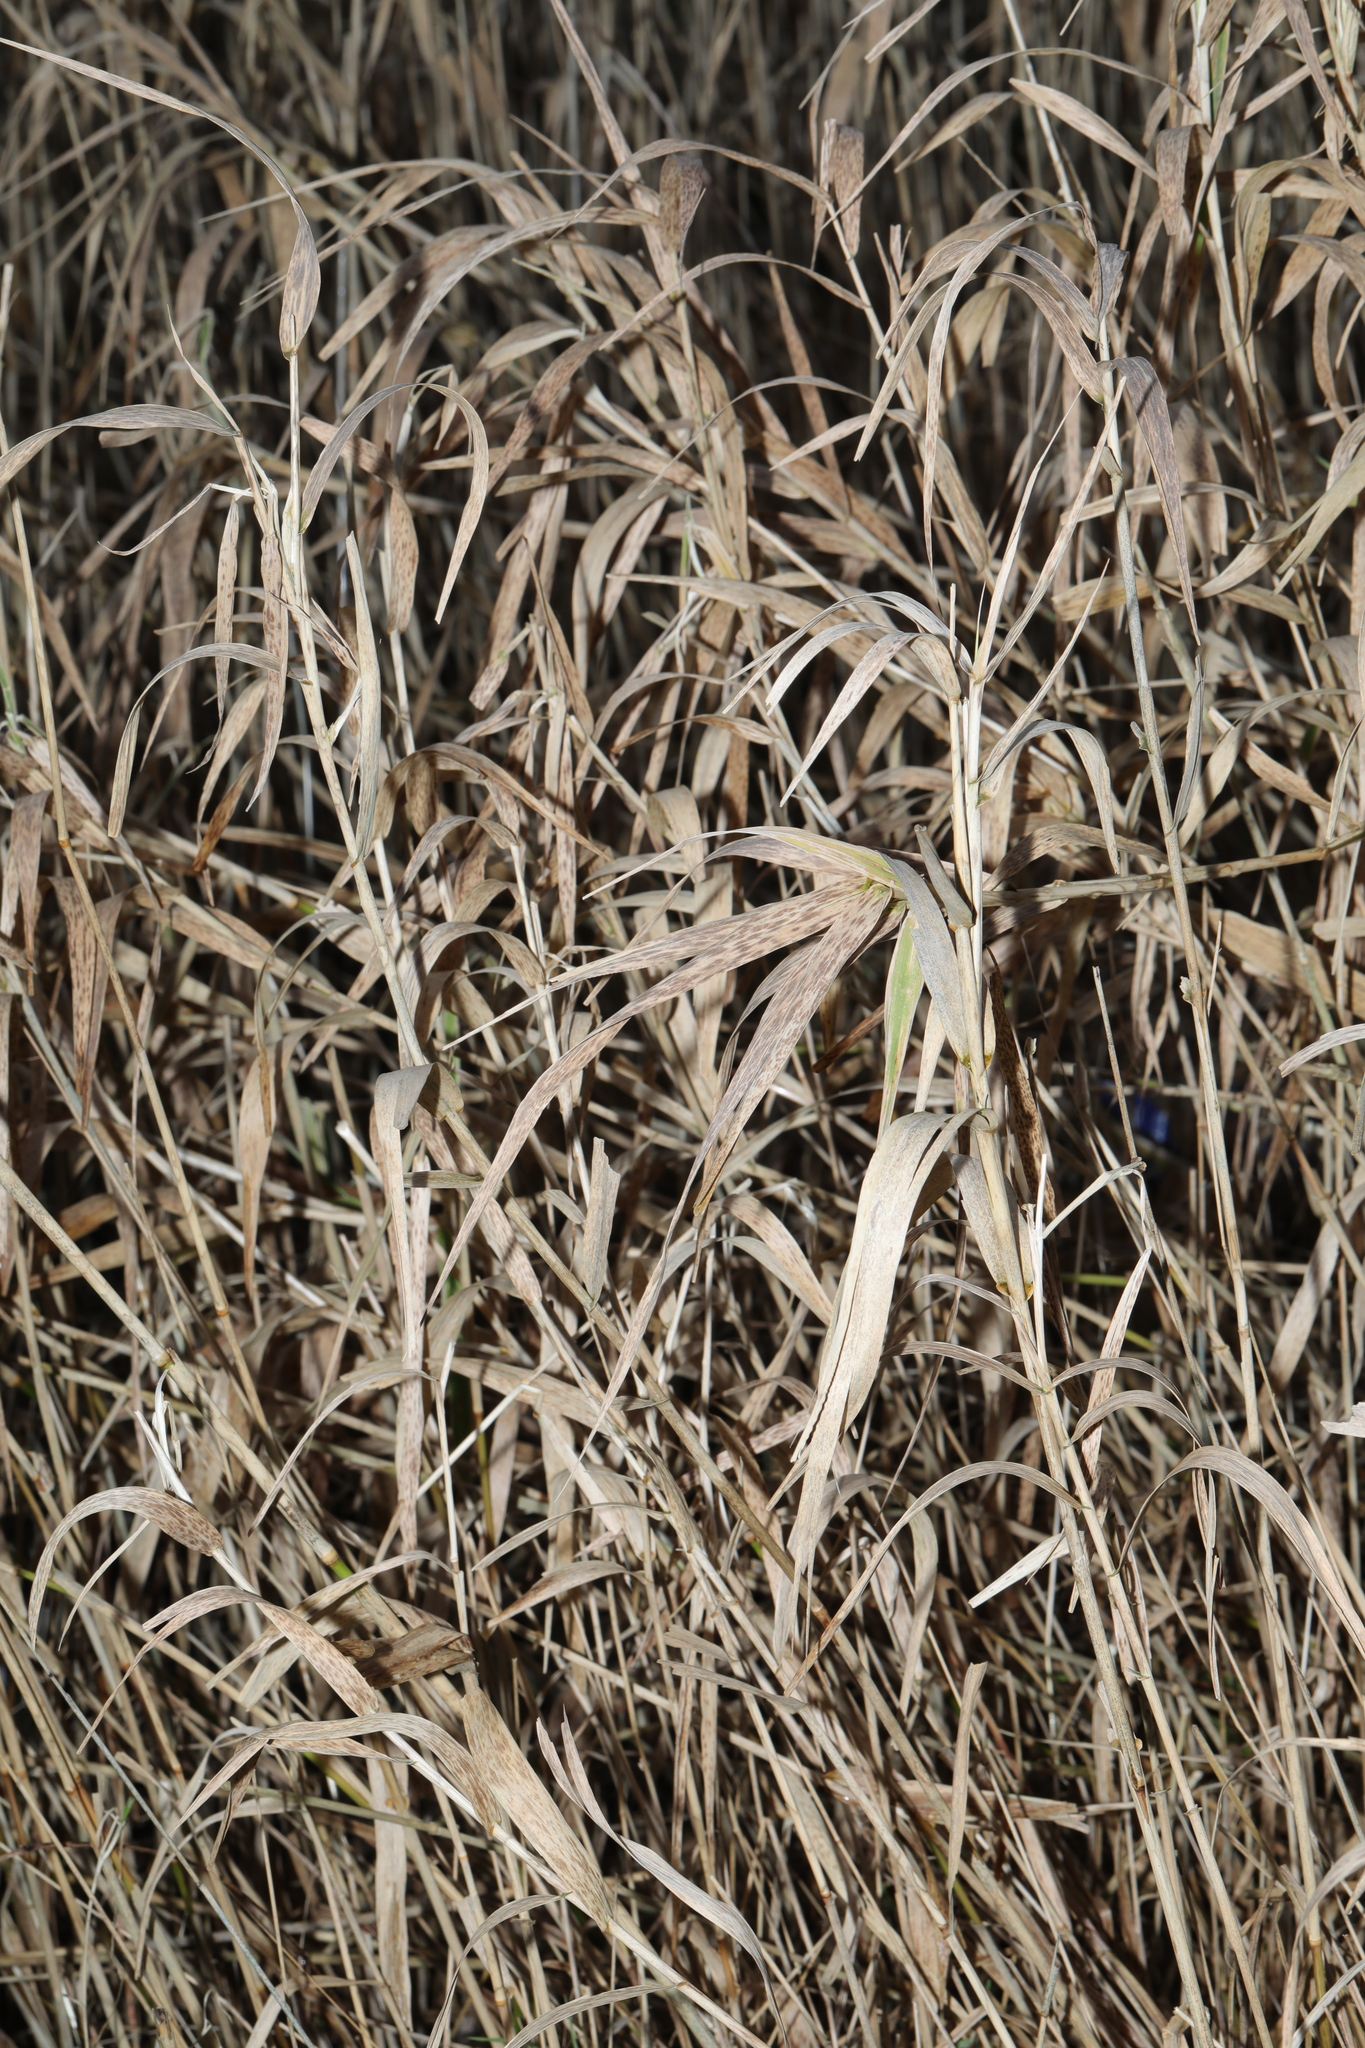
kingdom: Plantae
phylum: Tracheophyta
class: Liliopsida
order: Poales
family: Poaceae
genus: Phalaris
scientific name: Phalaris arundinacea
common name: Reed canary-grass
